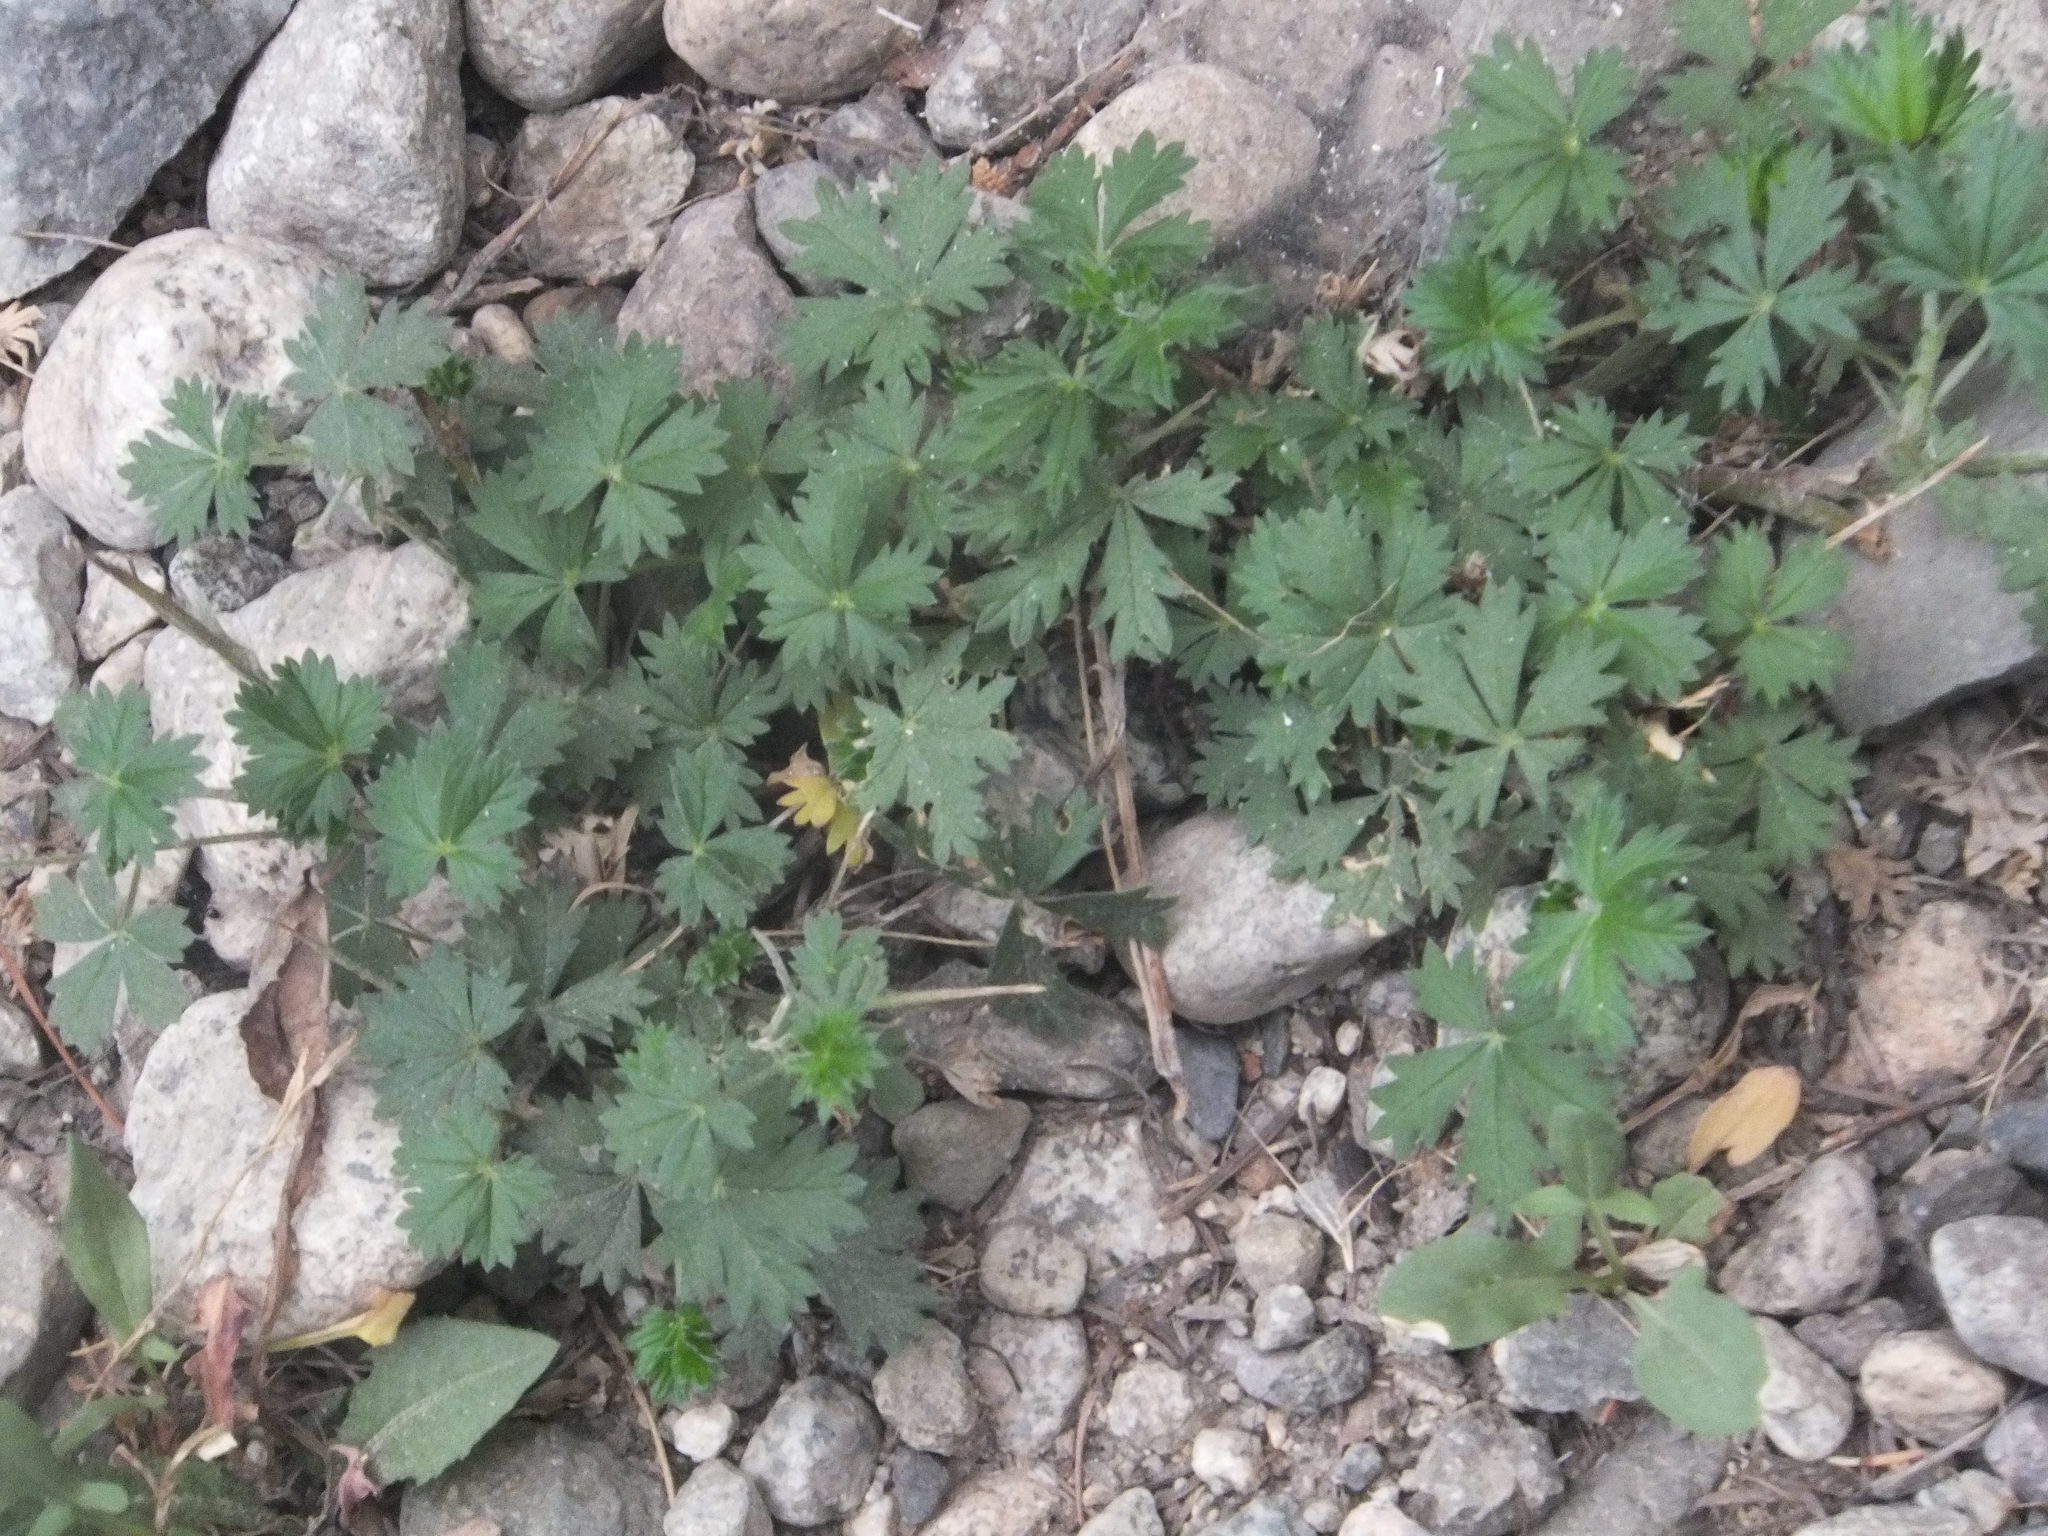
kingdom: Plantae
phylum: Tracheophyta
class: Magnoliopsida
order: Rosales
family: Rosaceae
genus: Potentilla
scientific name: Potentilla argentea
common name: Hoary cinquefoil
